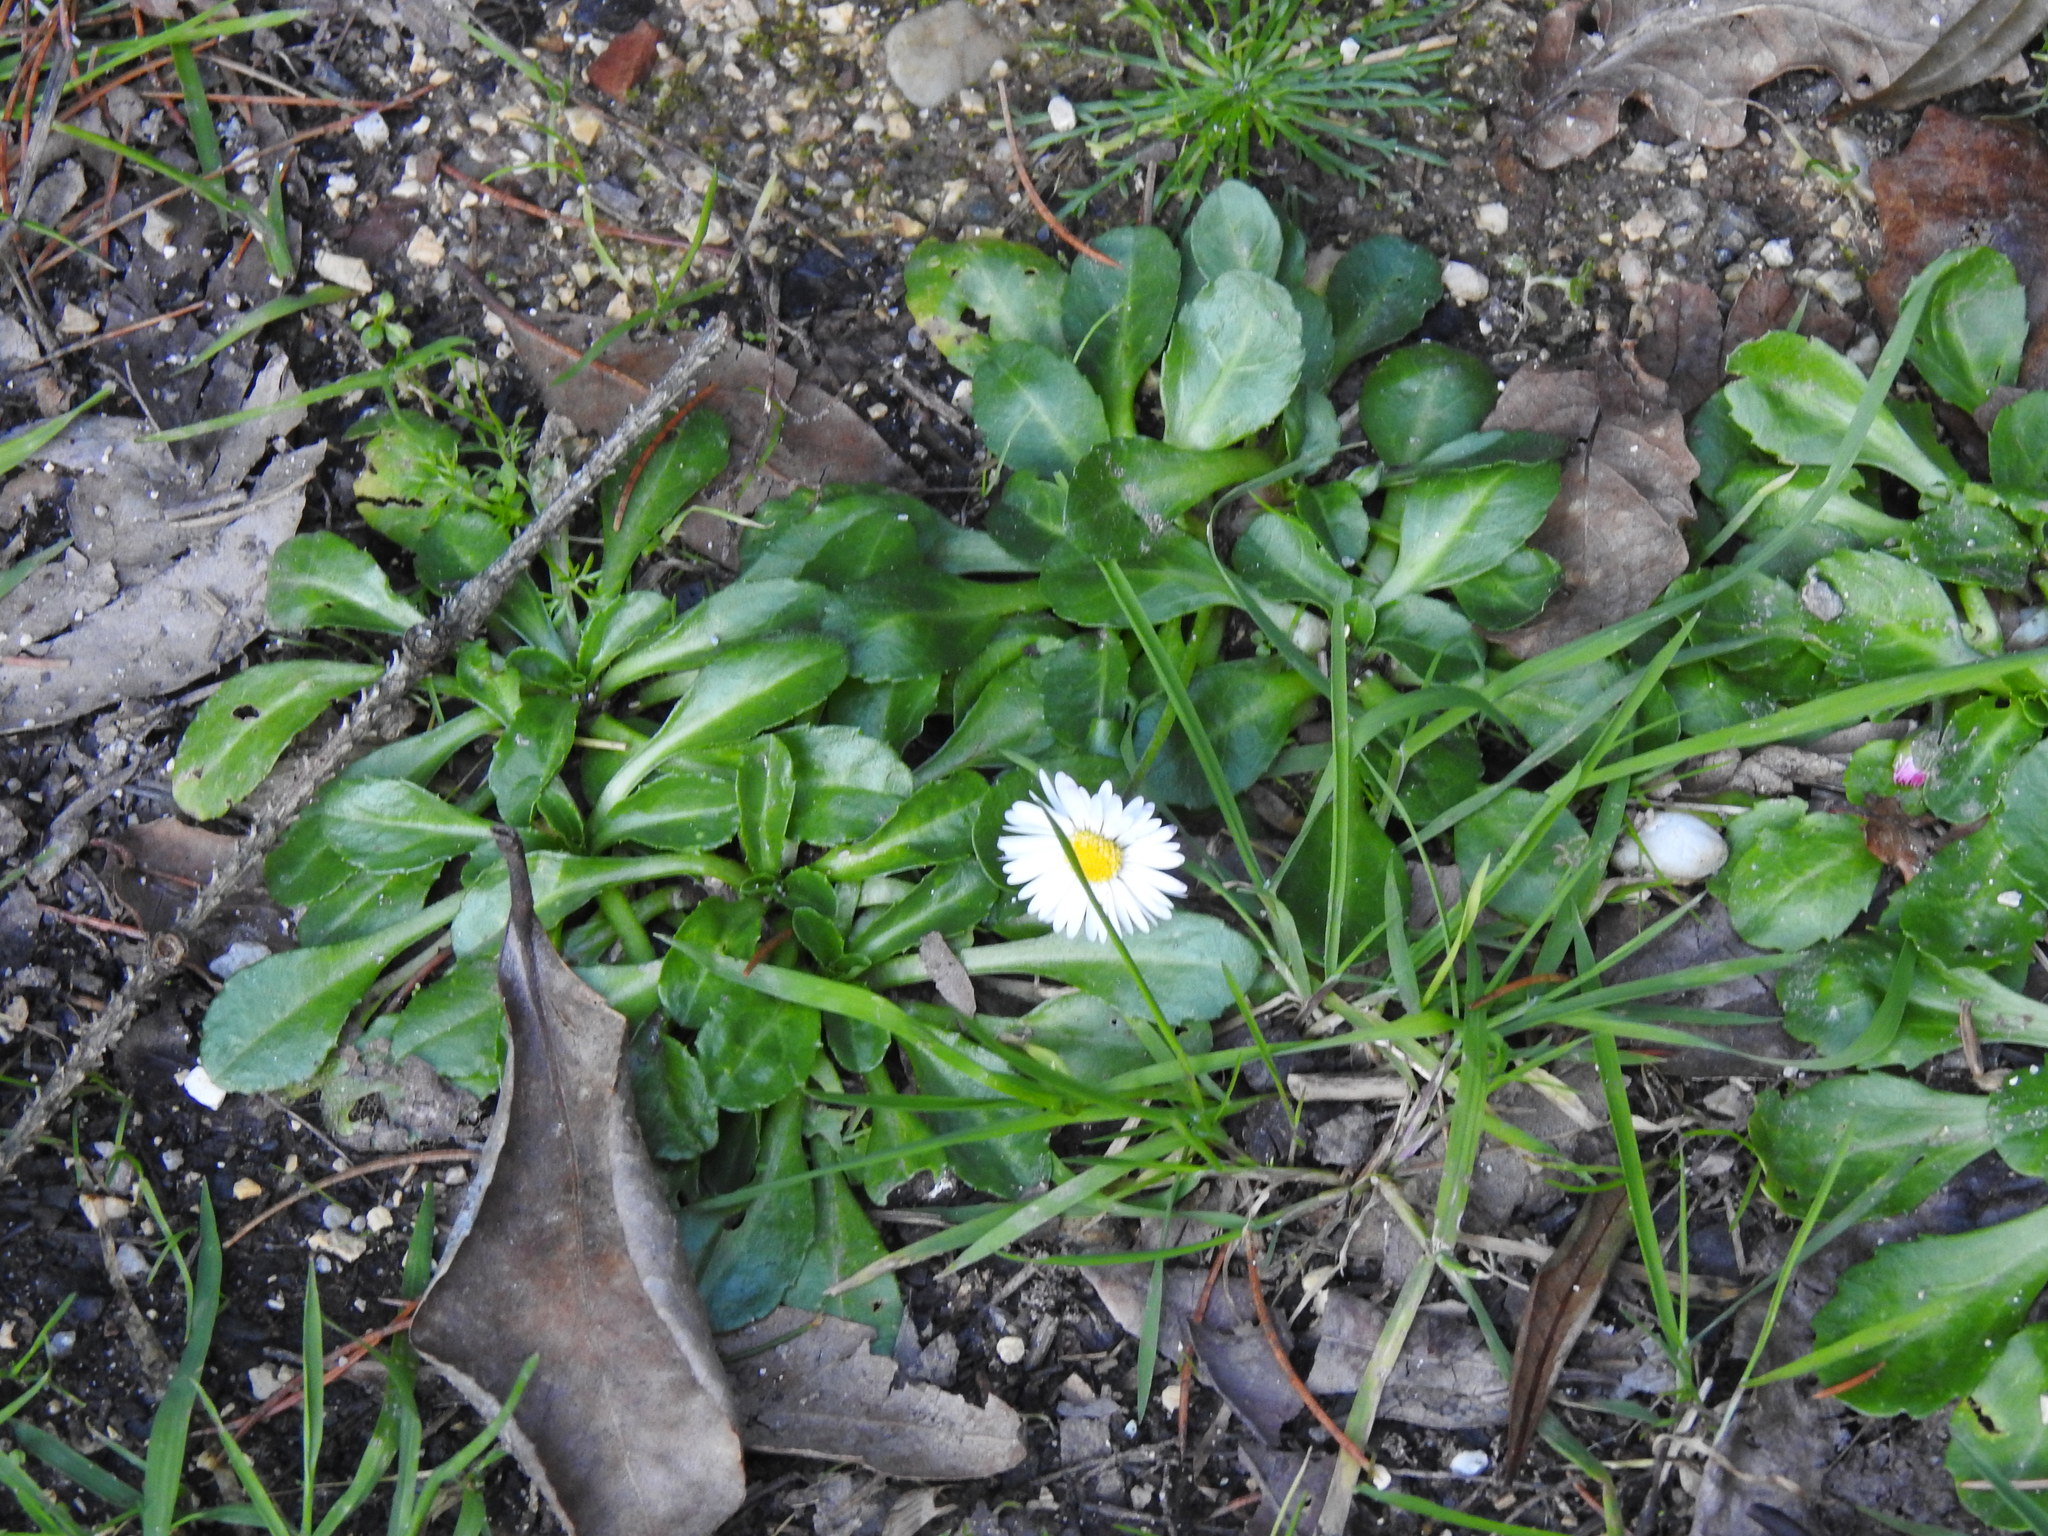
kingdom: Plantae
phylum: Tracheophyta
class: Magnoliopsida
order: Asterales
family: Asteraceae
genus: Bellis
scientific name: Bellis perennis
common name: Lawndaisy
